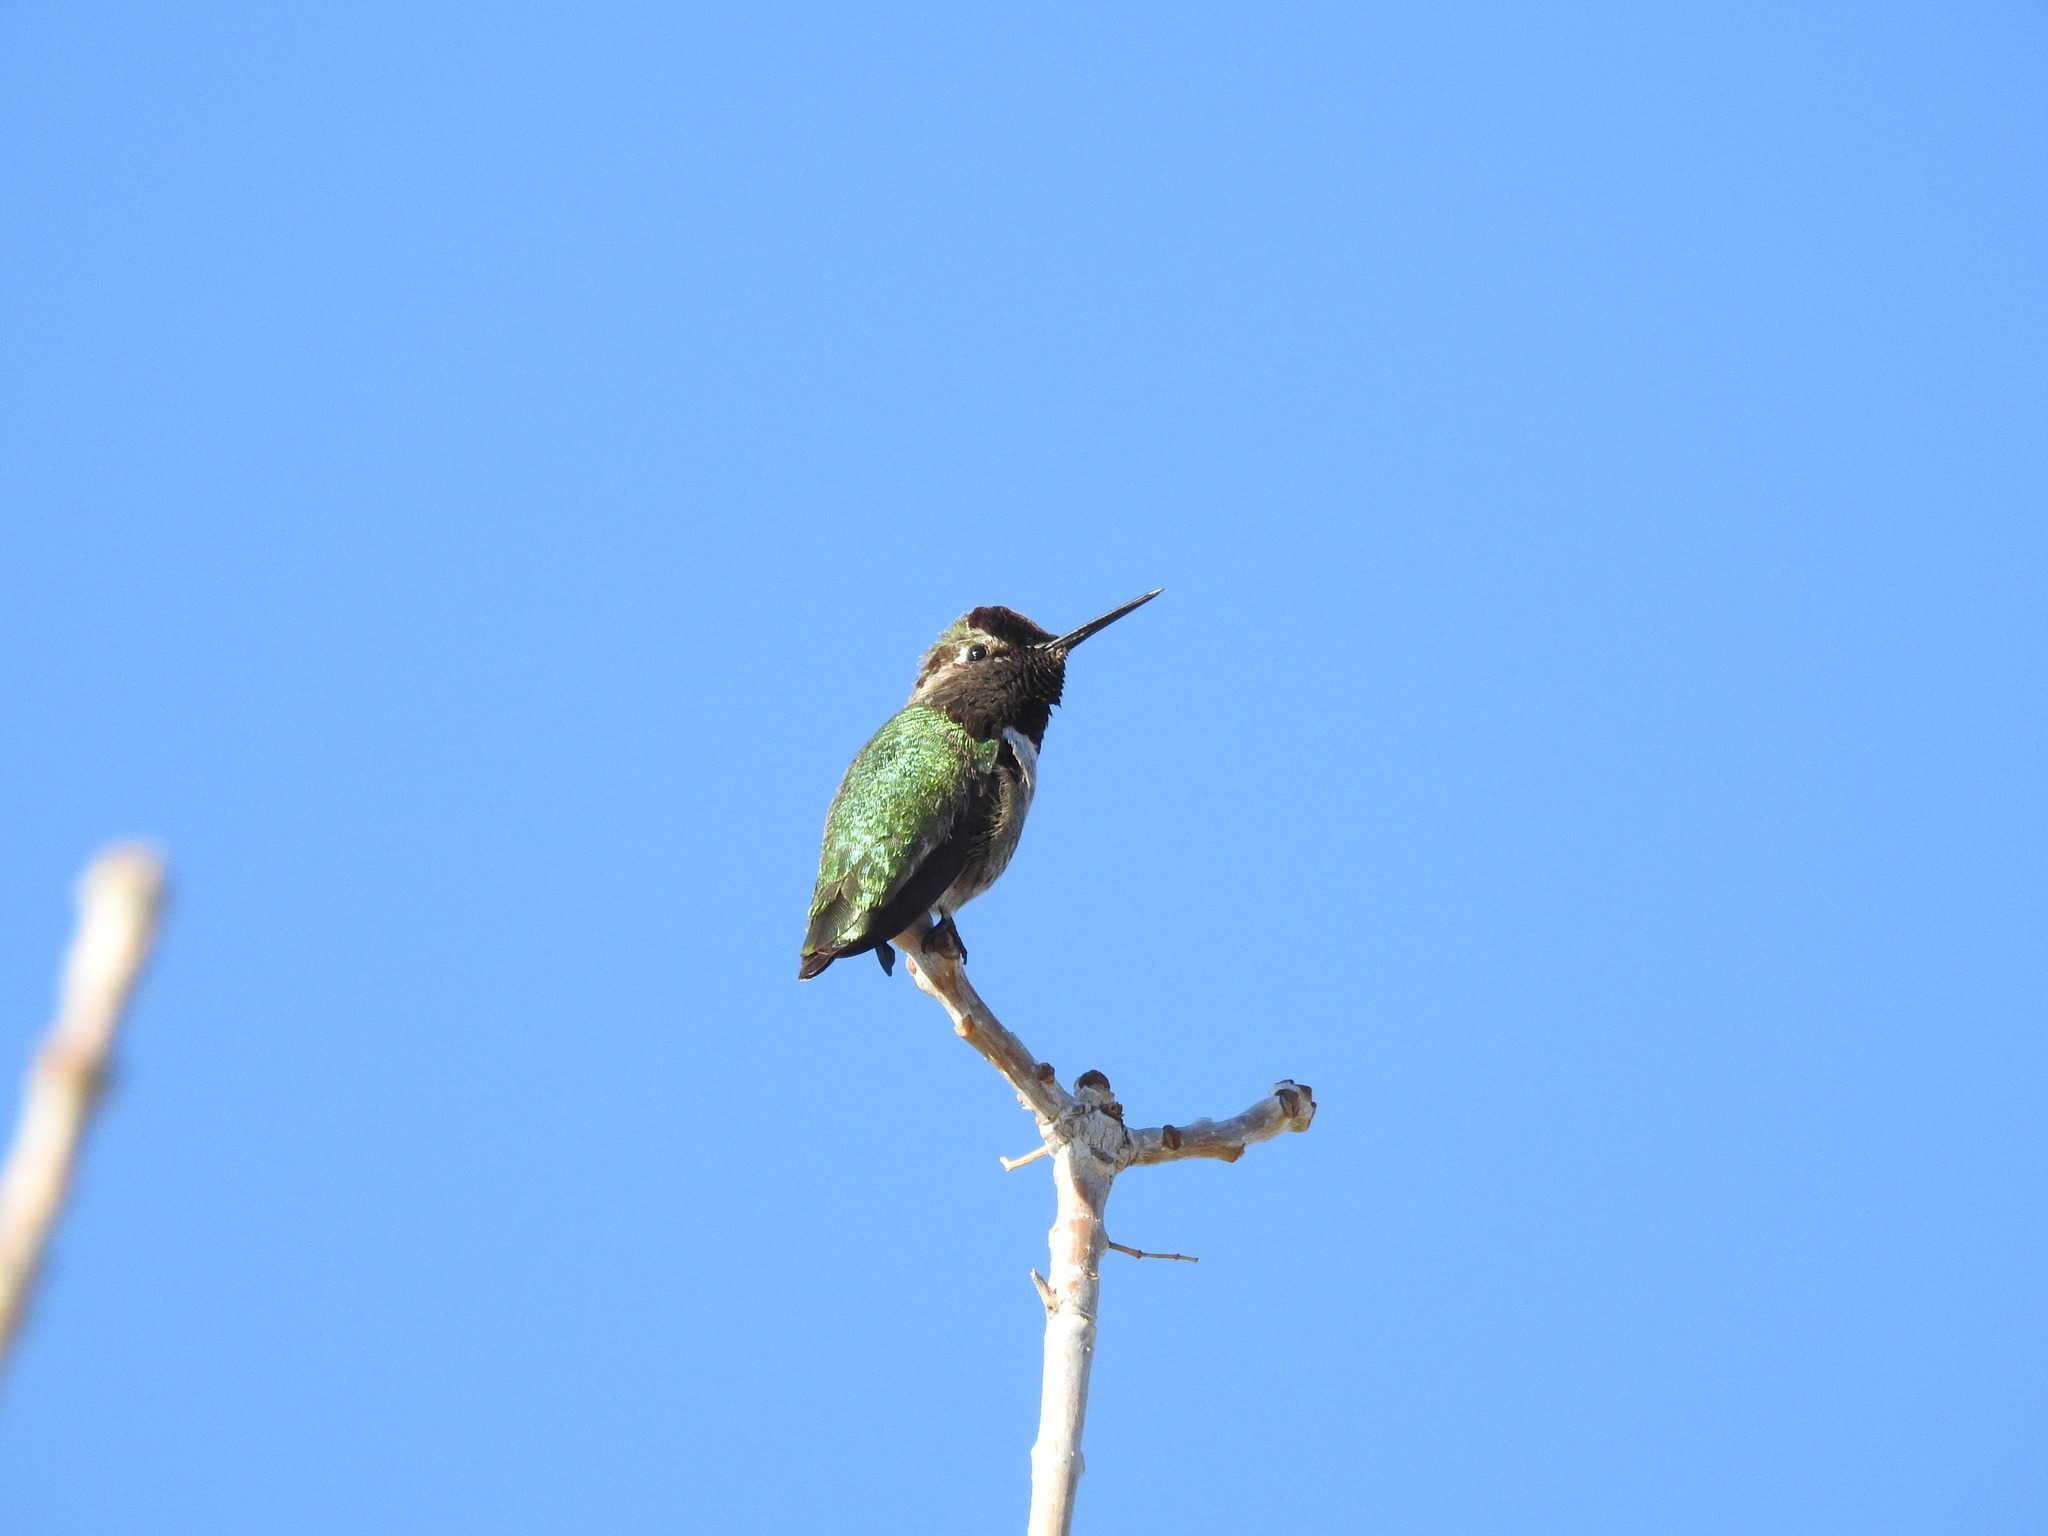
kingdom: Animalia
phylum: Chordata
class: Aves
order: Apodiformes
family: Trochilidae
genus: Calypte
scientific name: Calypte anna
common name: Anna's hummingbird
